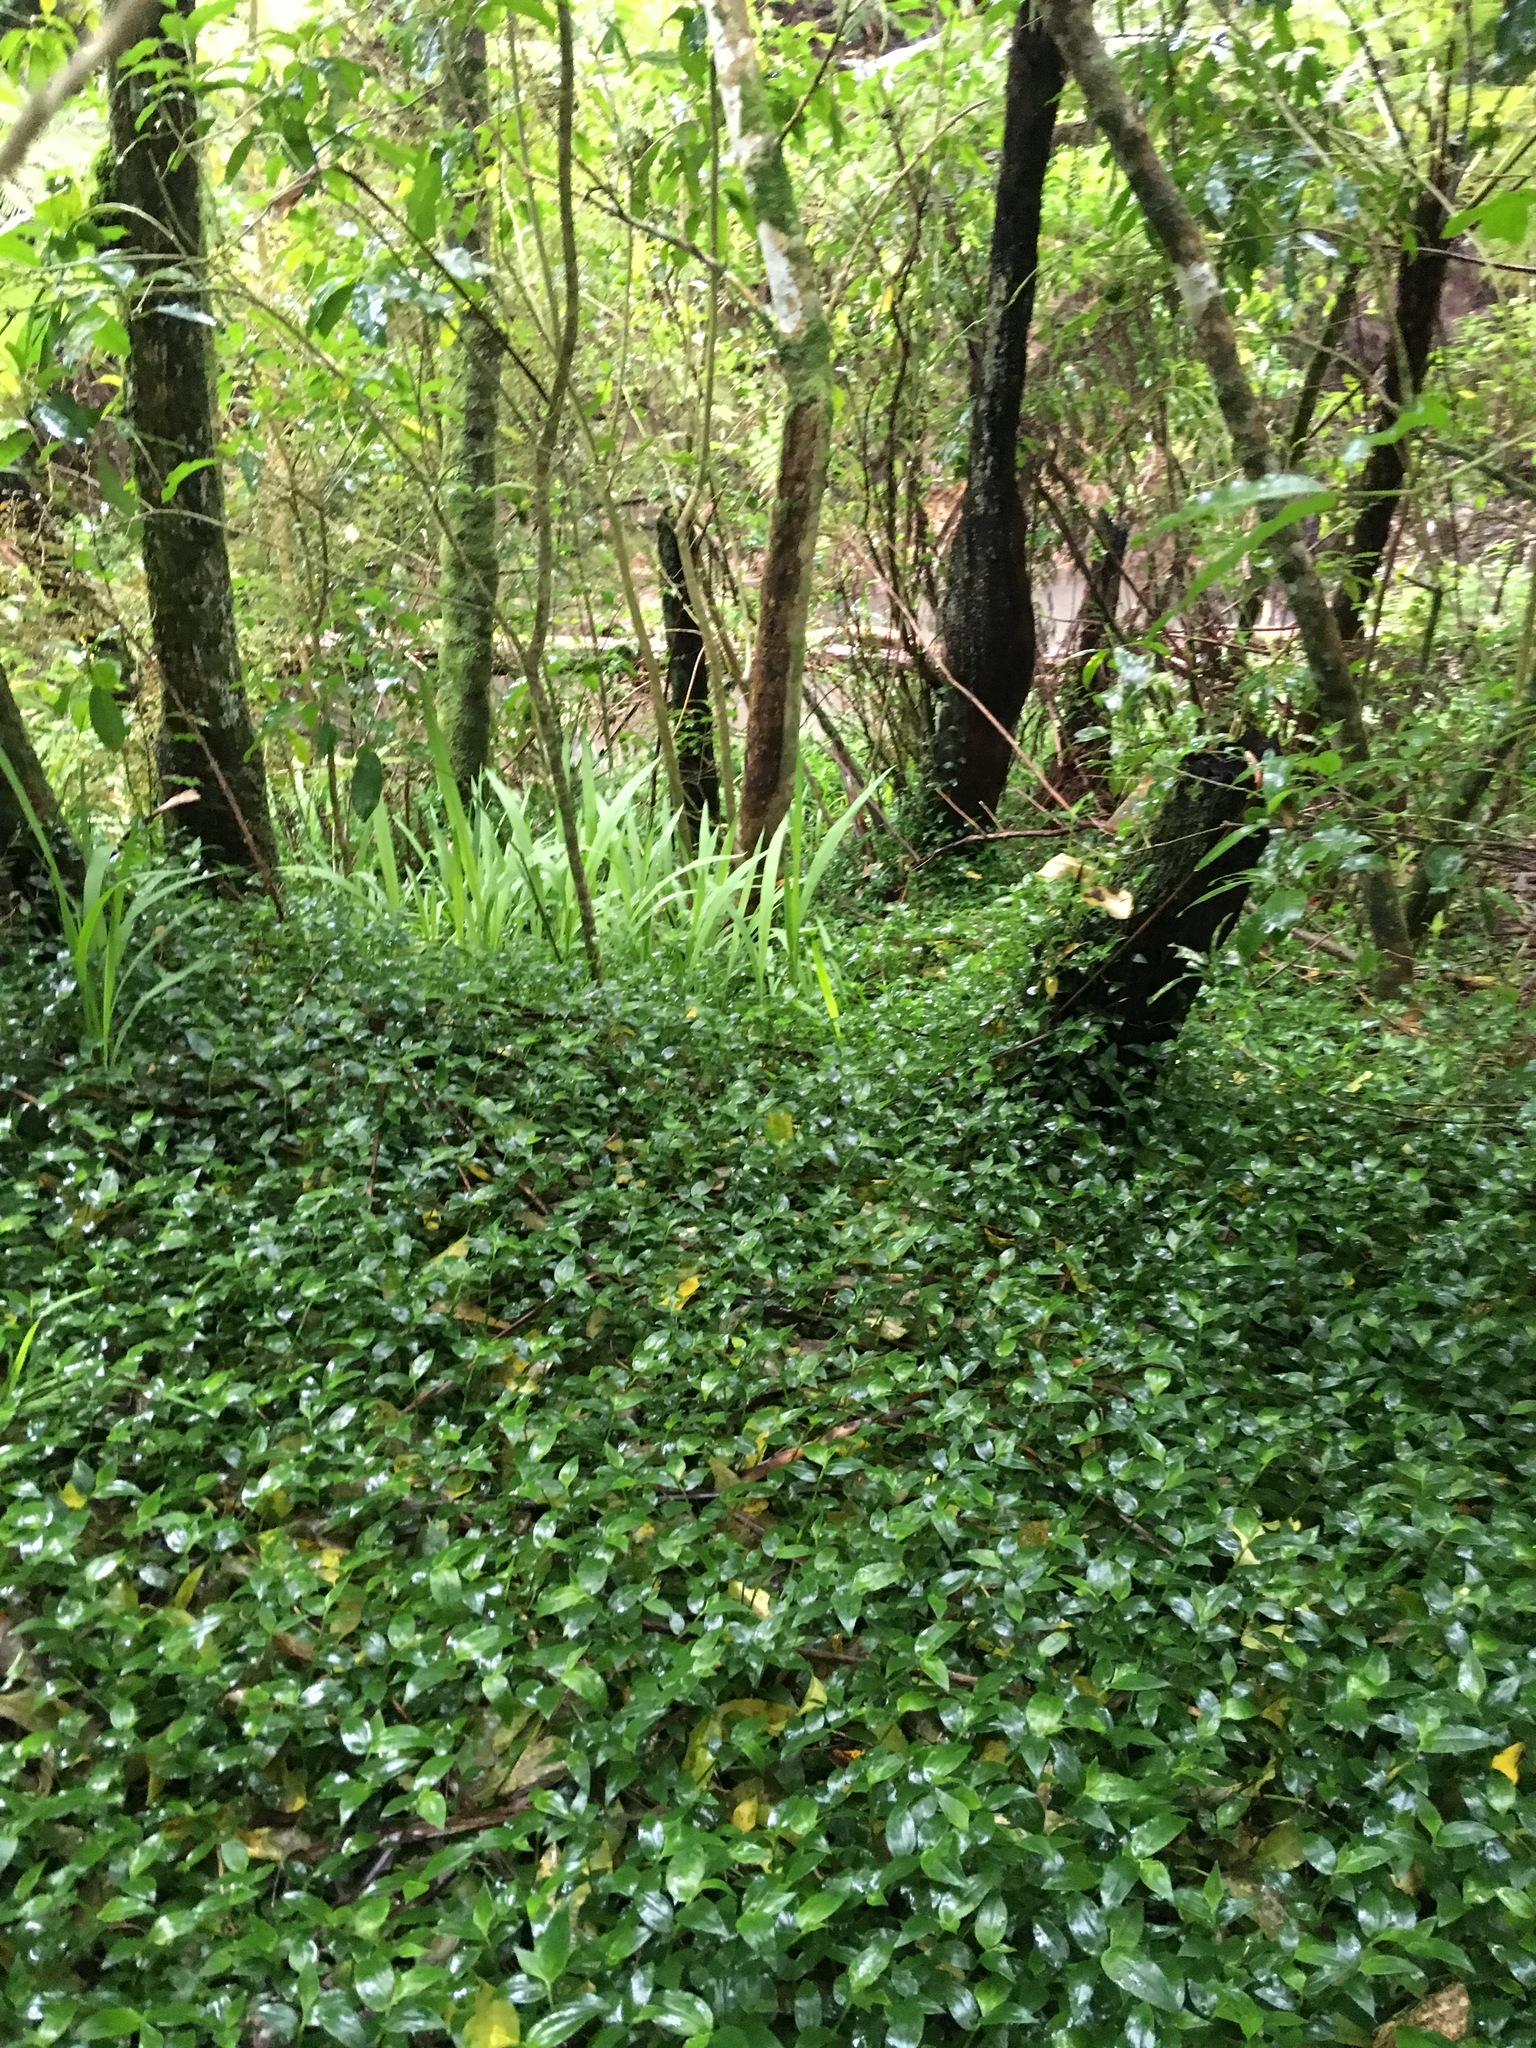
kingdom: Plantae
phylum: Tracheophyta
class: Liliopsida
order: Commelinales
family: Commelinaceae
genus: Tradescantia
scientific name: Tradescantia fluminensis
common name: Wandering-jew
